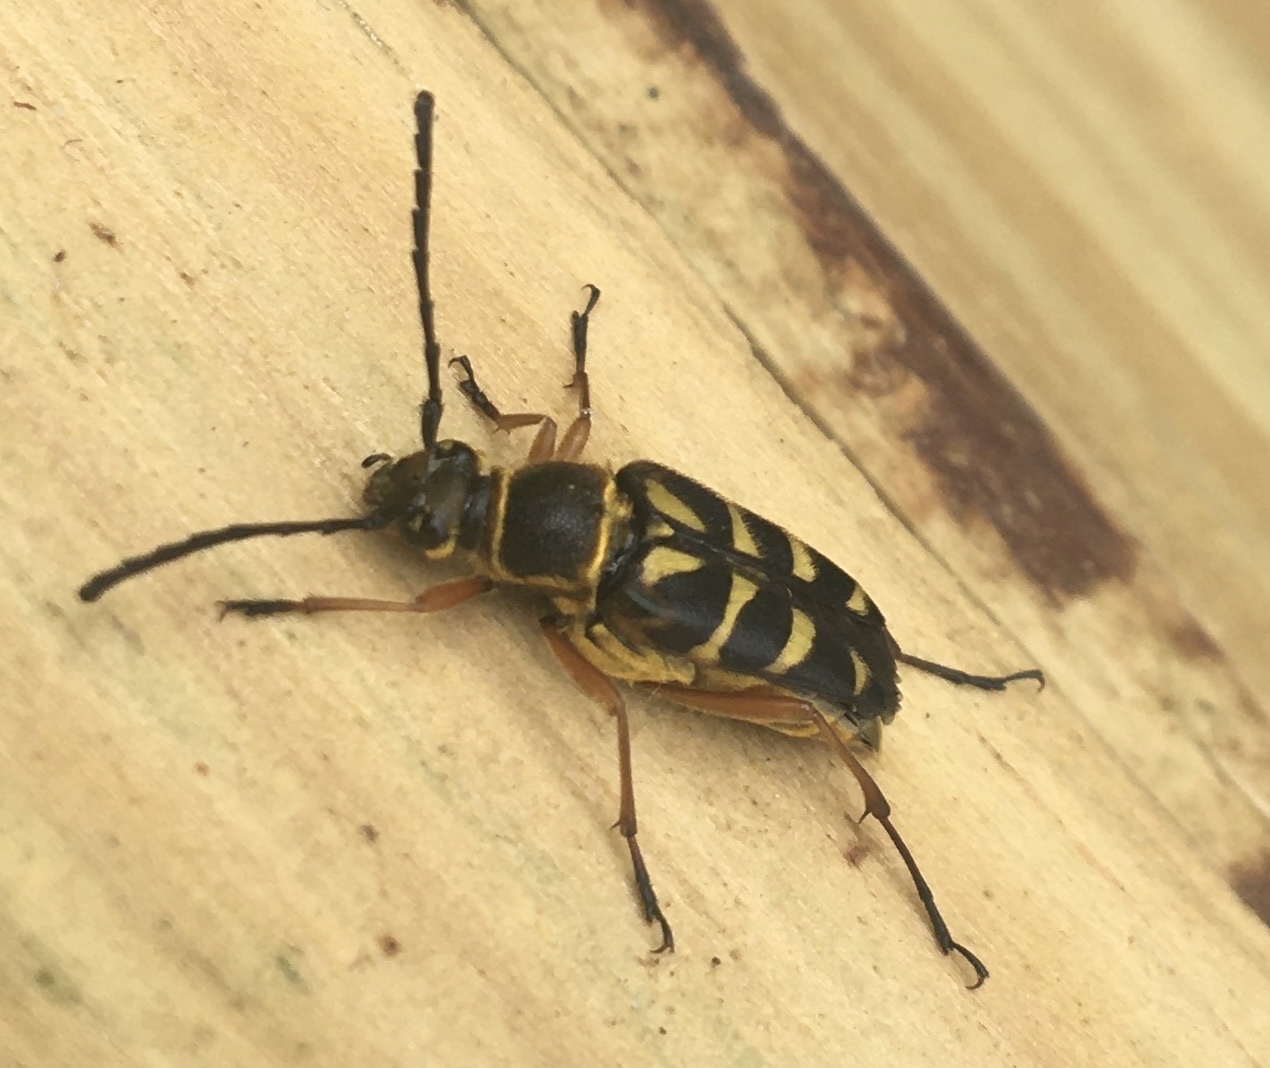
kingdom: Animalia
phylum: Arthropoda
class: Insecta
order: Coleoptera
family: Cerambycidae
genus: Typocerus
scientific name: Typocerus zebra
